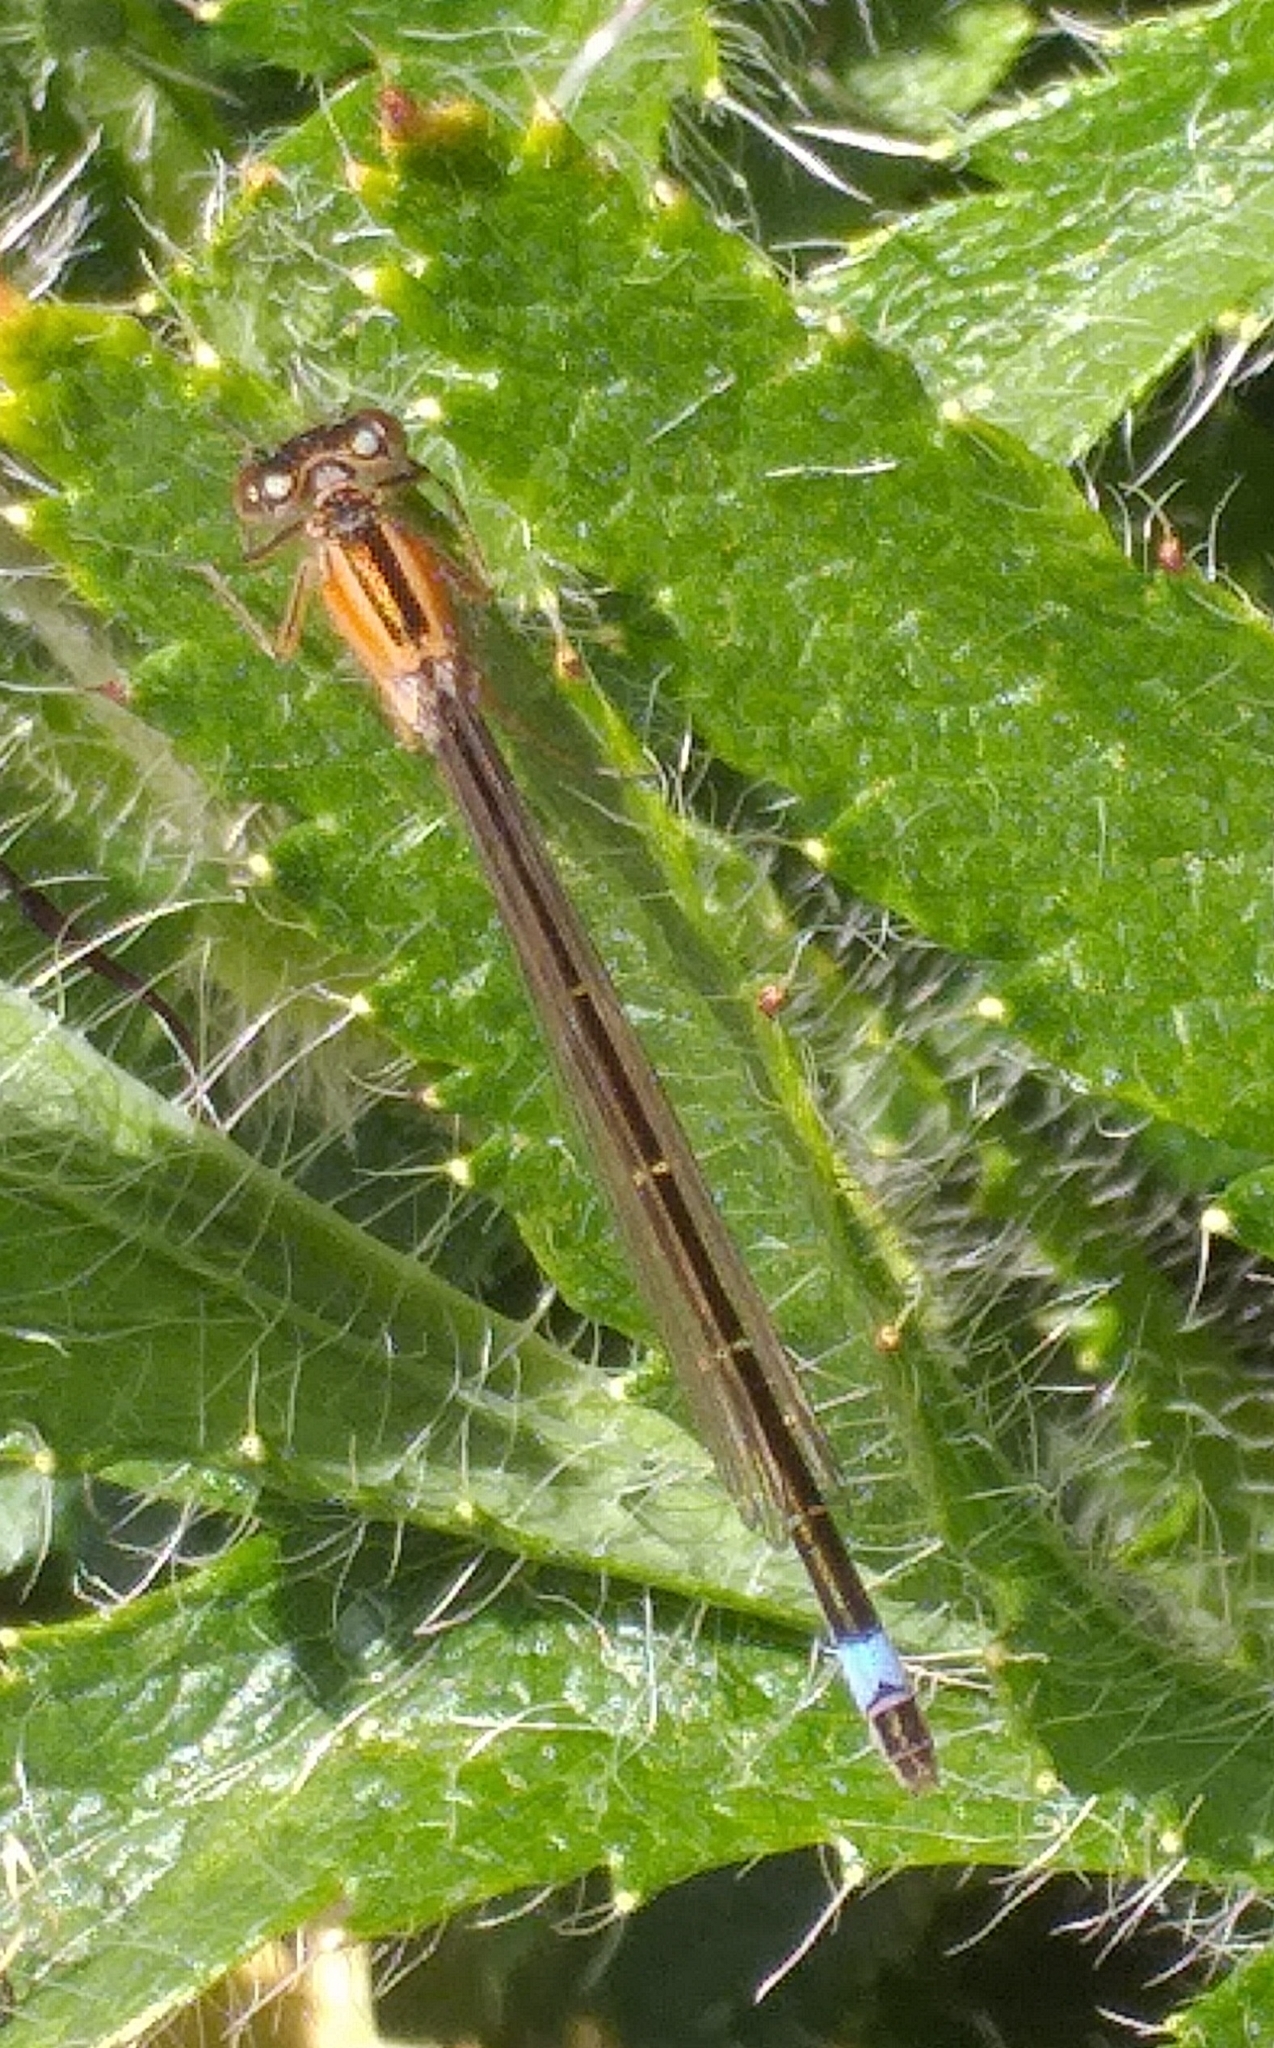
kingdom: Animalia
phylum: Arthropoda
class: Insecta
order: Odonata
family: Coenagrionidae
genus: Ischnura
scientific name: Ischnura elegans
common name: Blue-tailed damselfly
